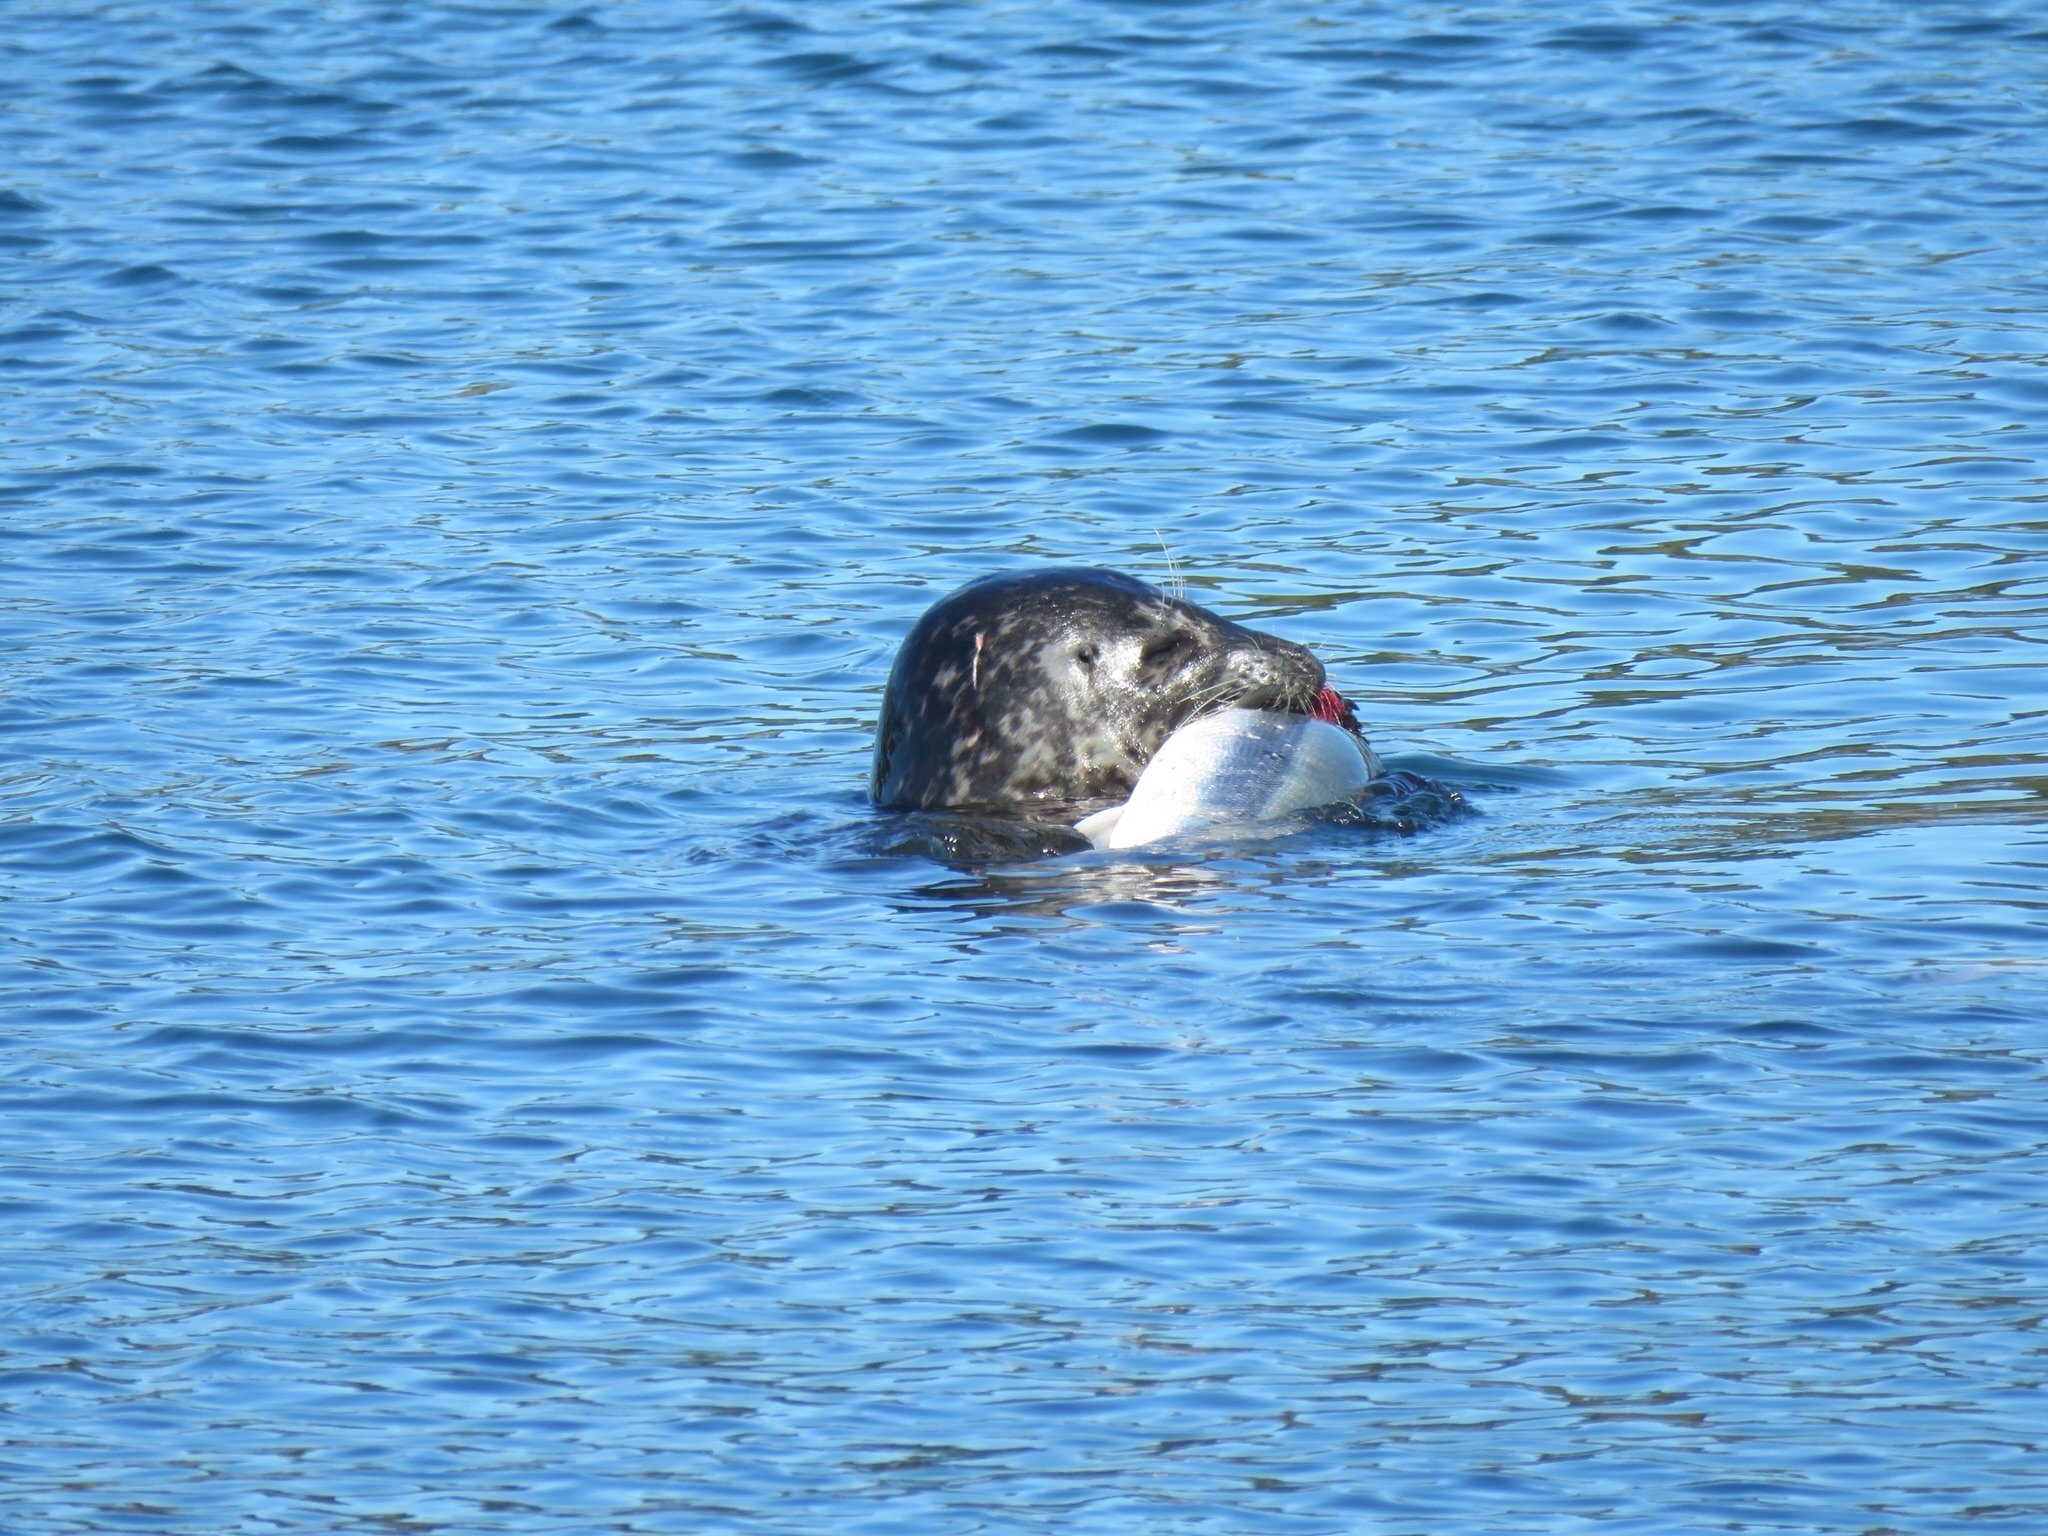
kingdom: Animalia
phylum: Chordata
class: Mammalia
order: Carnivora
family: Phocidae
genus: Phoca
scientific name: Phoca vitulina
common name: Harbor seal
